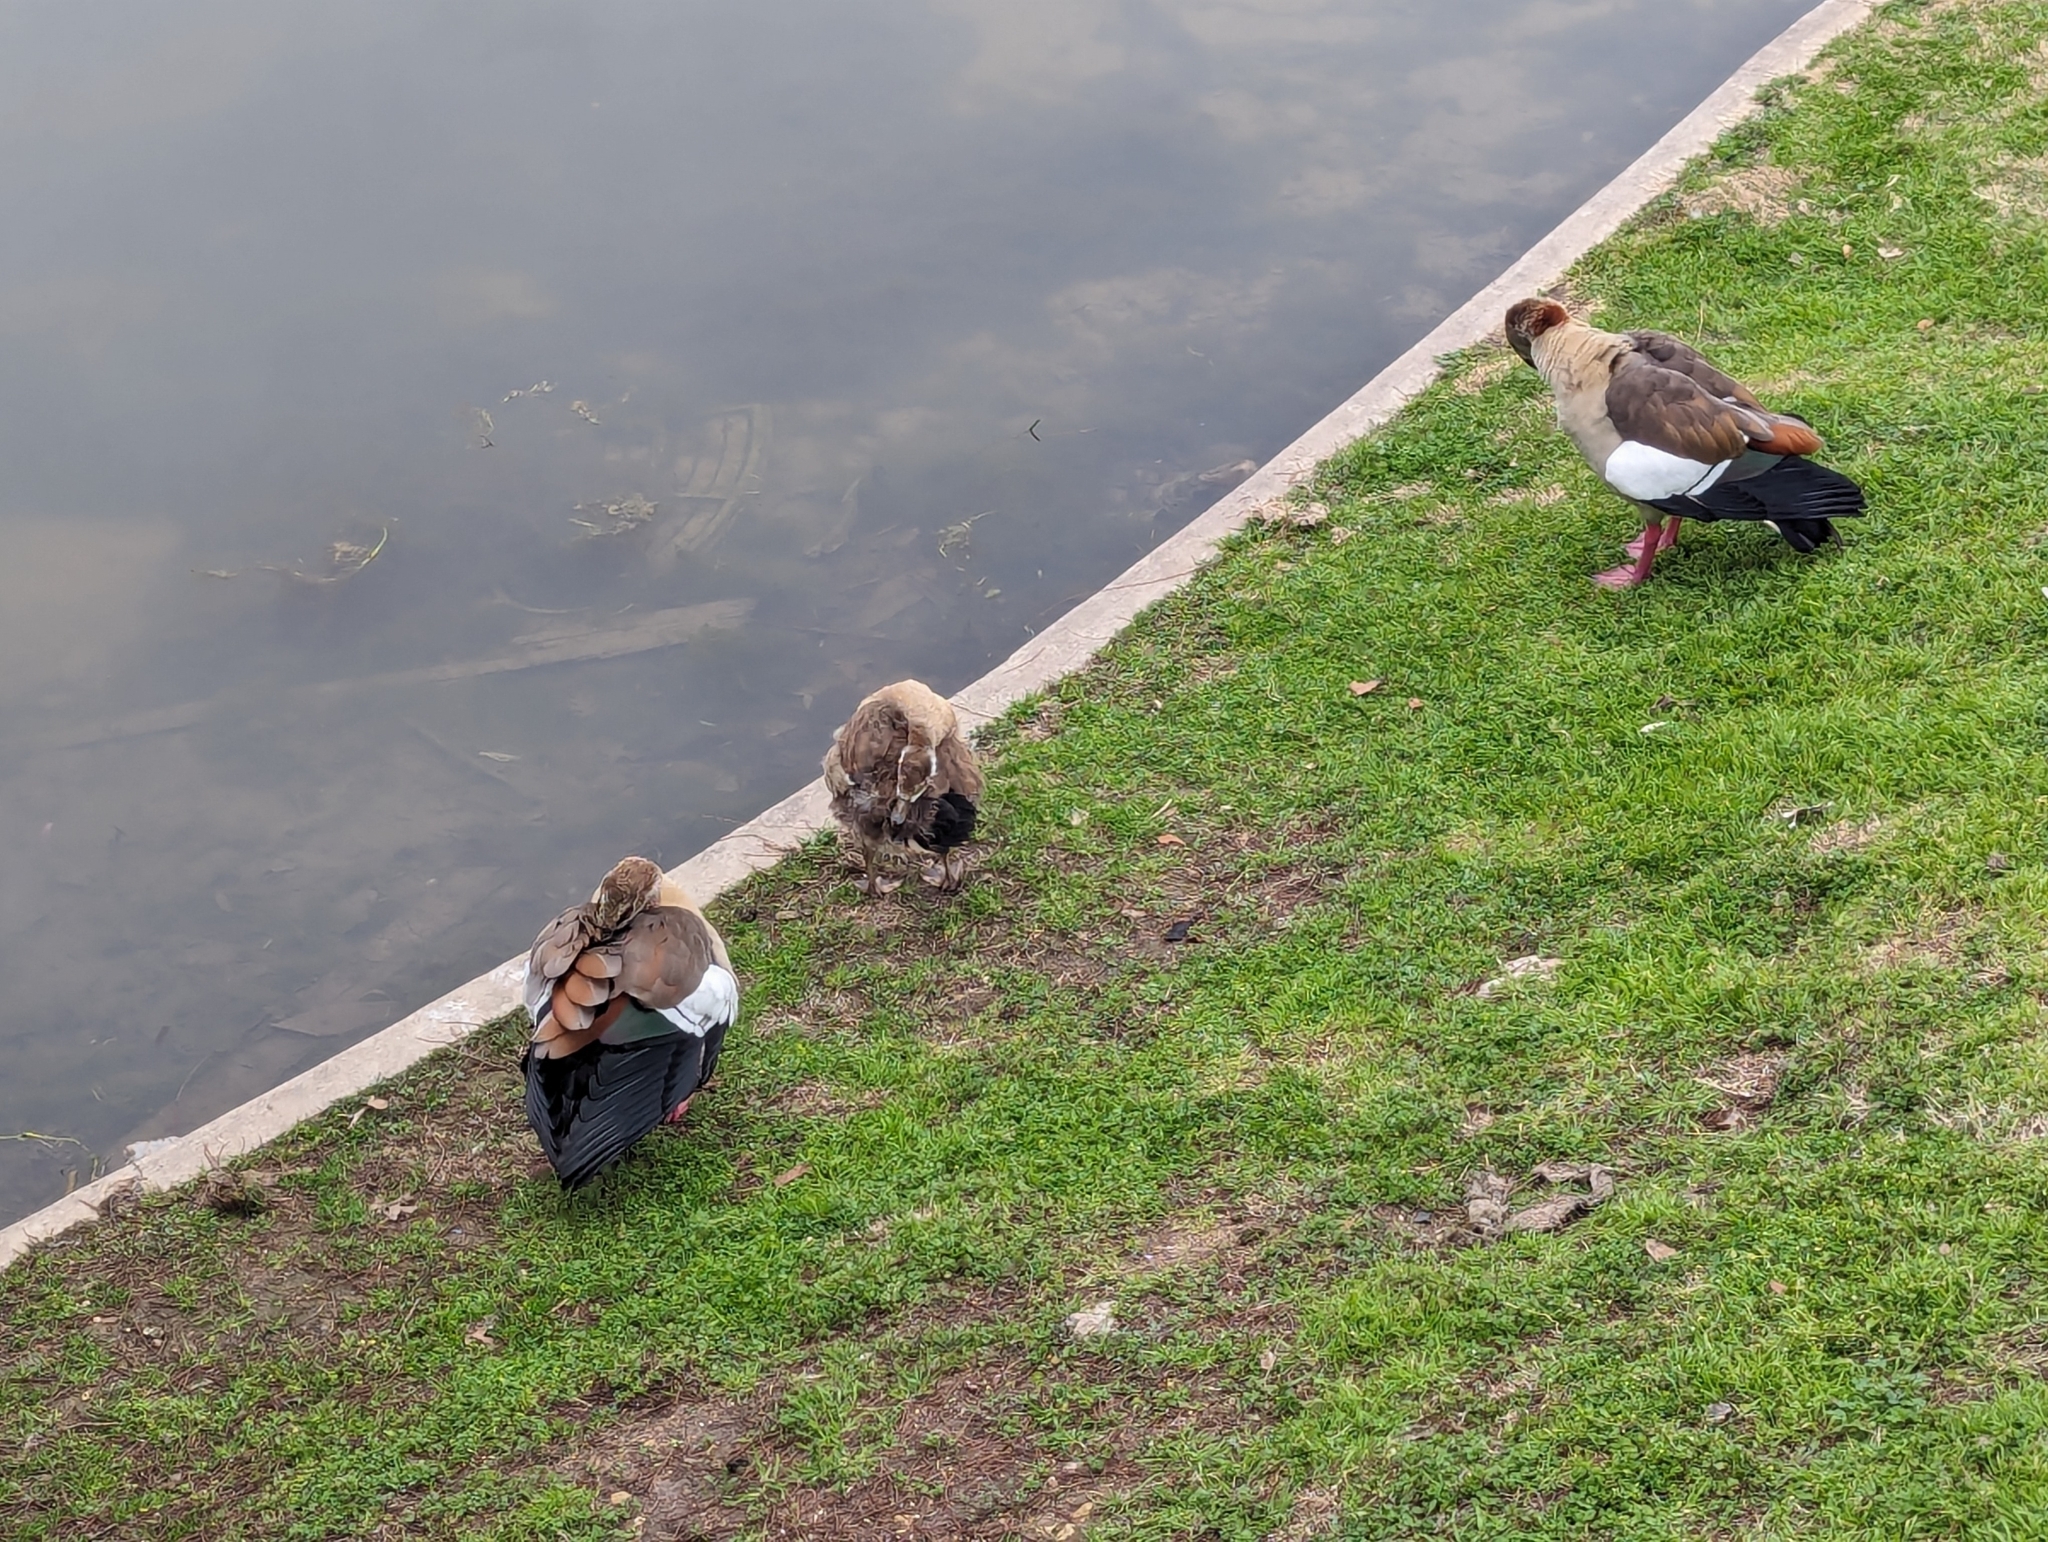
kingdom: Animalia
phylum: Chordata
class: Aves
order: Anseriformes
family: Anatidae
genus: Alopochen
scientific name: Alopochen aegyptiaca
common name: Egyptian goose
